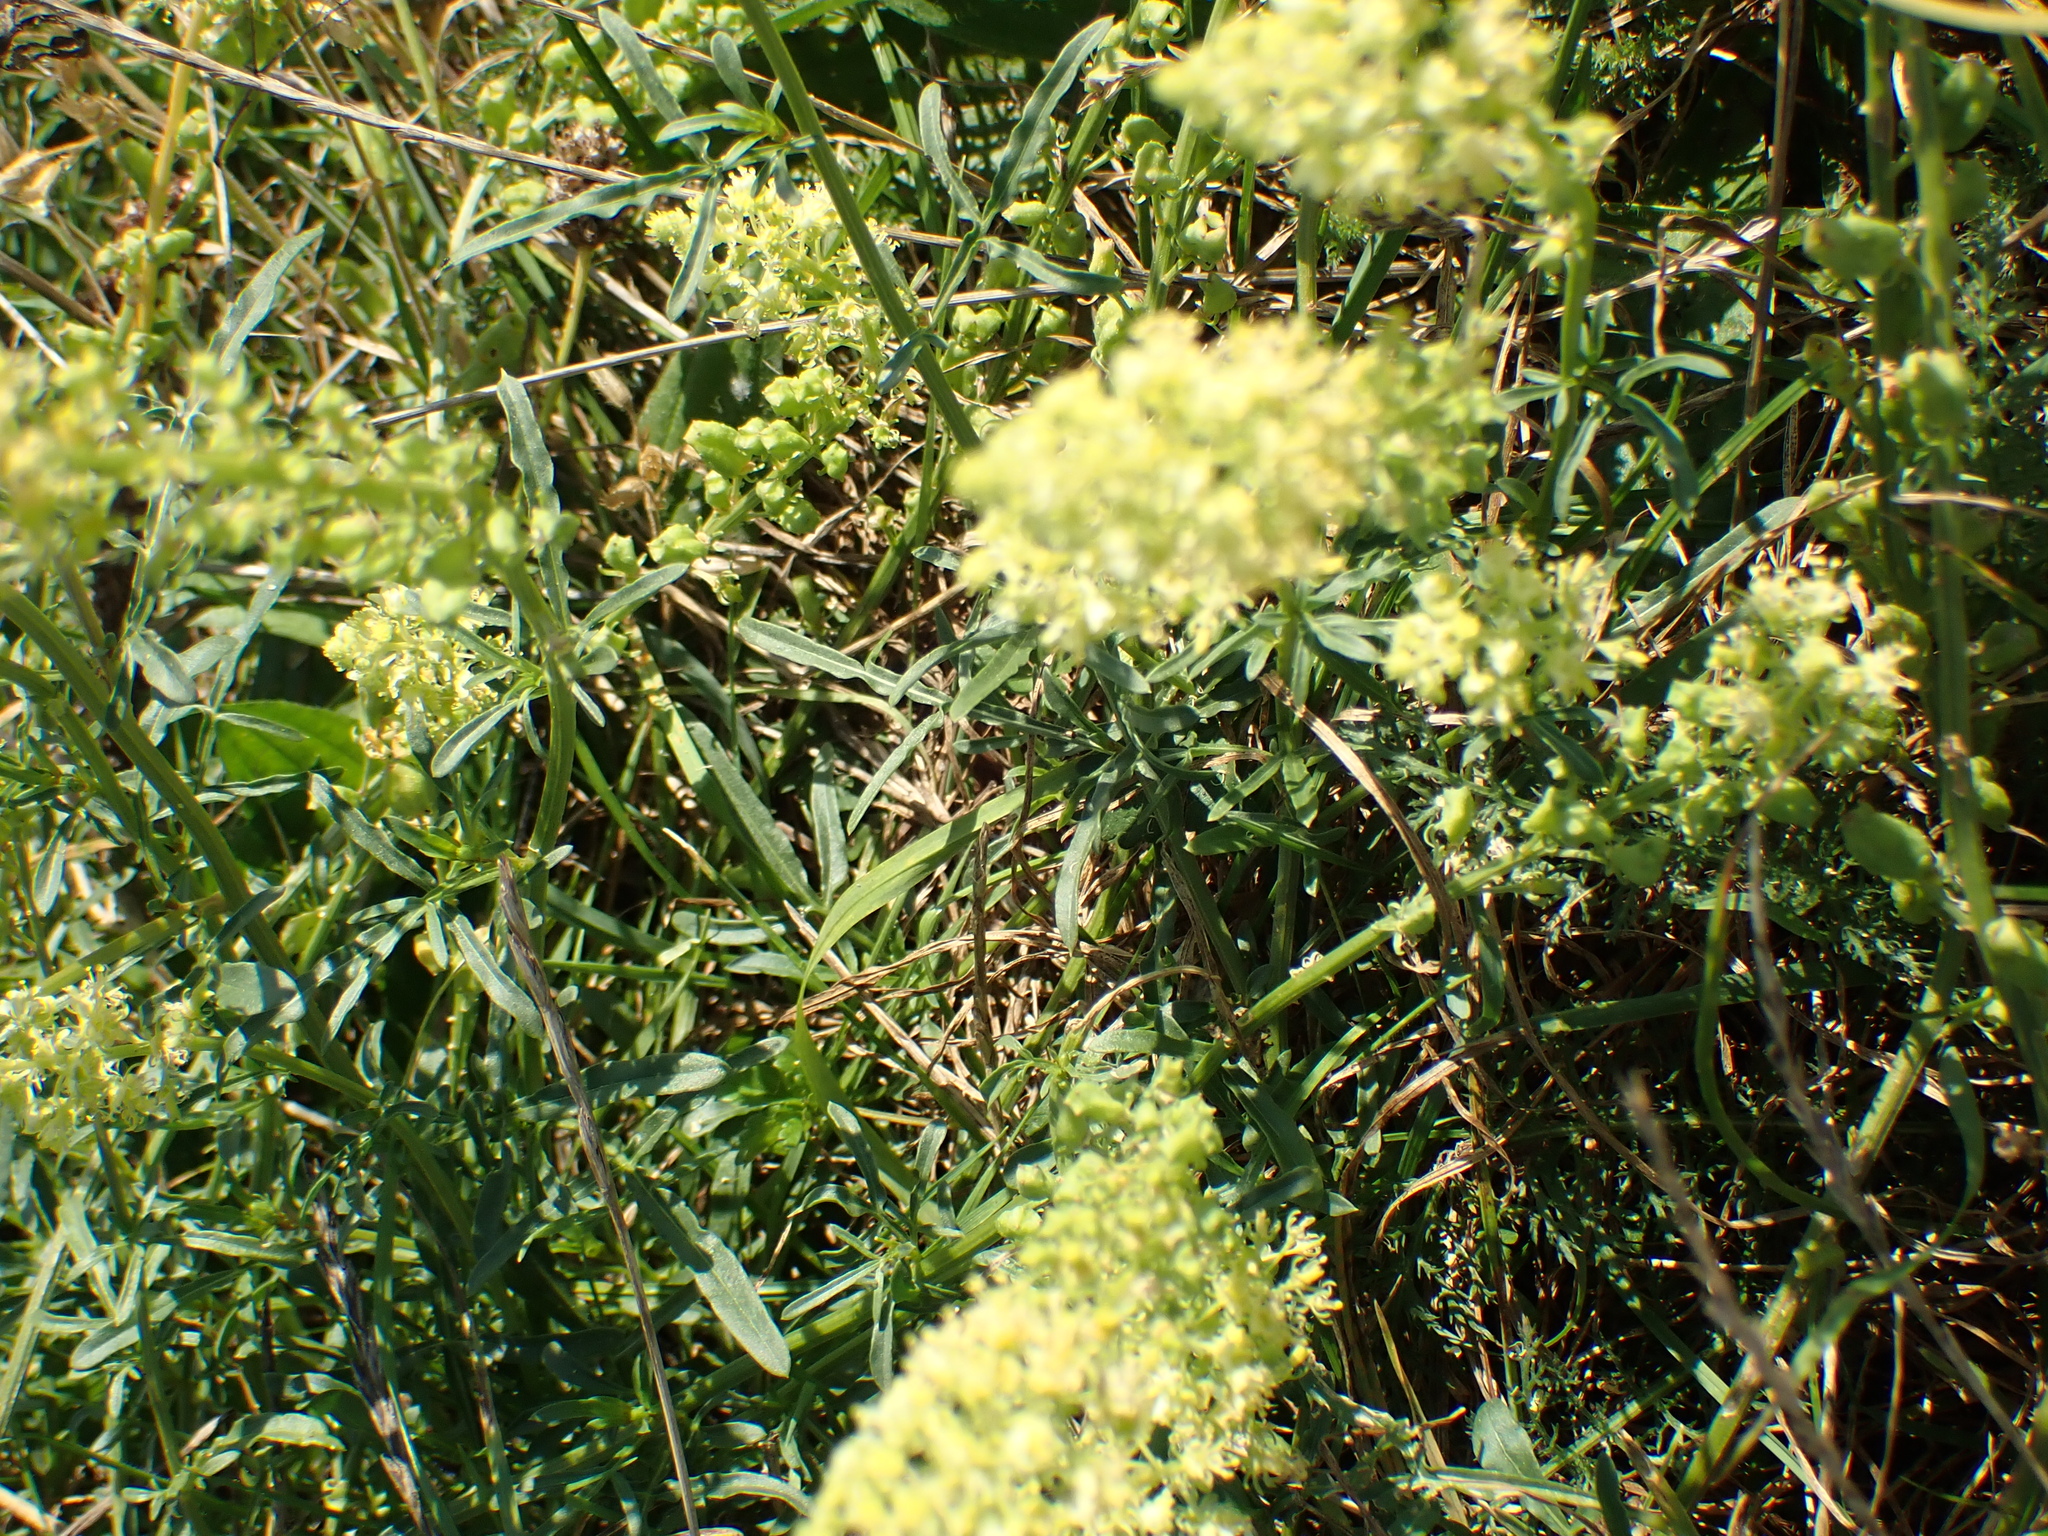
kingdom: Plantae
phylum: Tracheophyta
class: Magnoliopsida
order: Brassicales
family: Resedaceae
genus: Reseda
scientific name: Reseda lutea
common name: Wild mignonette
